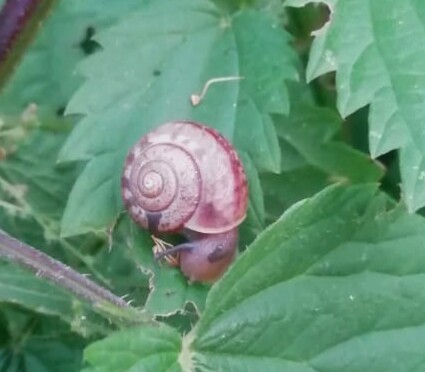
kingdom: Animalia
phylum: Mollusca
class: Gastropoda
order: Stylommatophora
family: Camaenidae
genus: Fruticicola
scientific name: Fruticicola fruticum
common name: Bush snail
